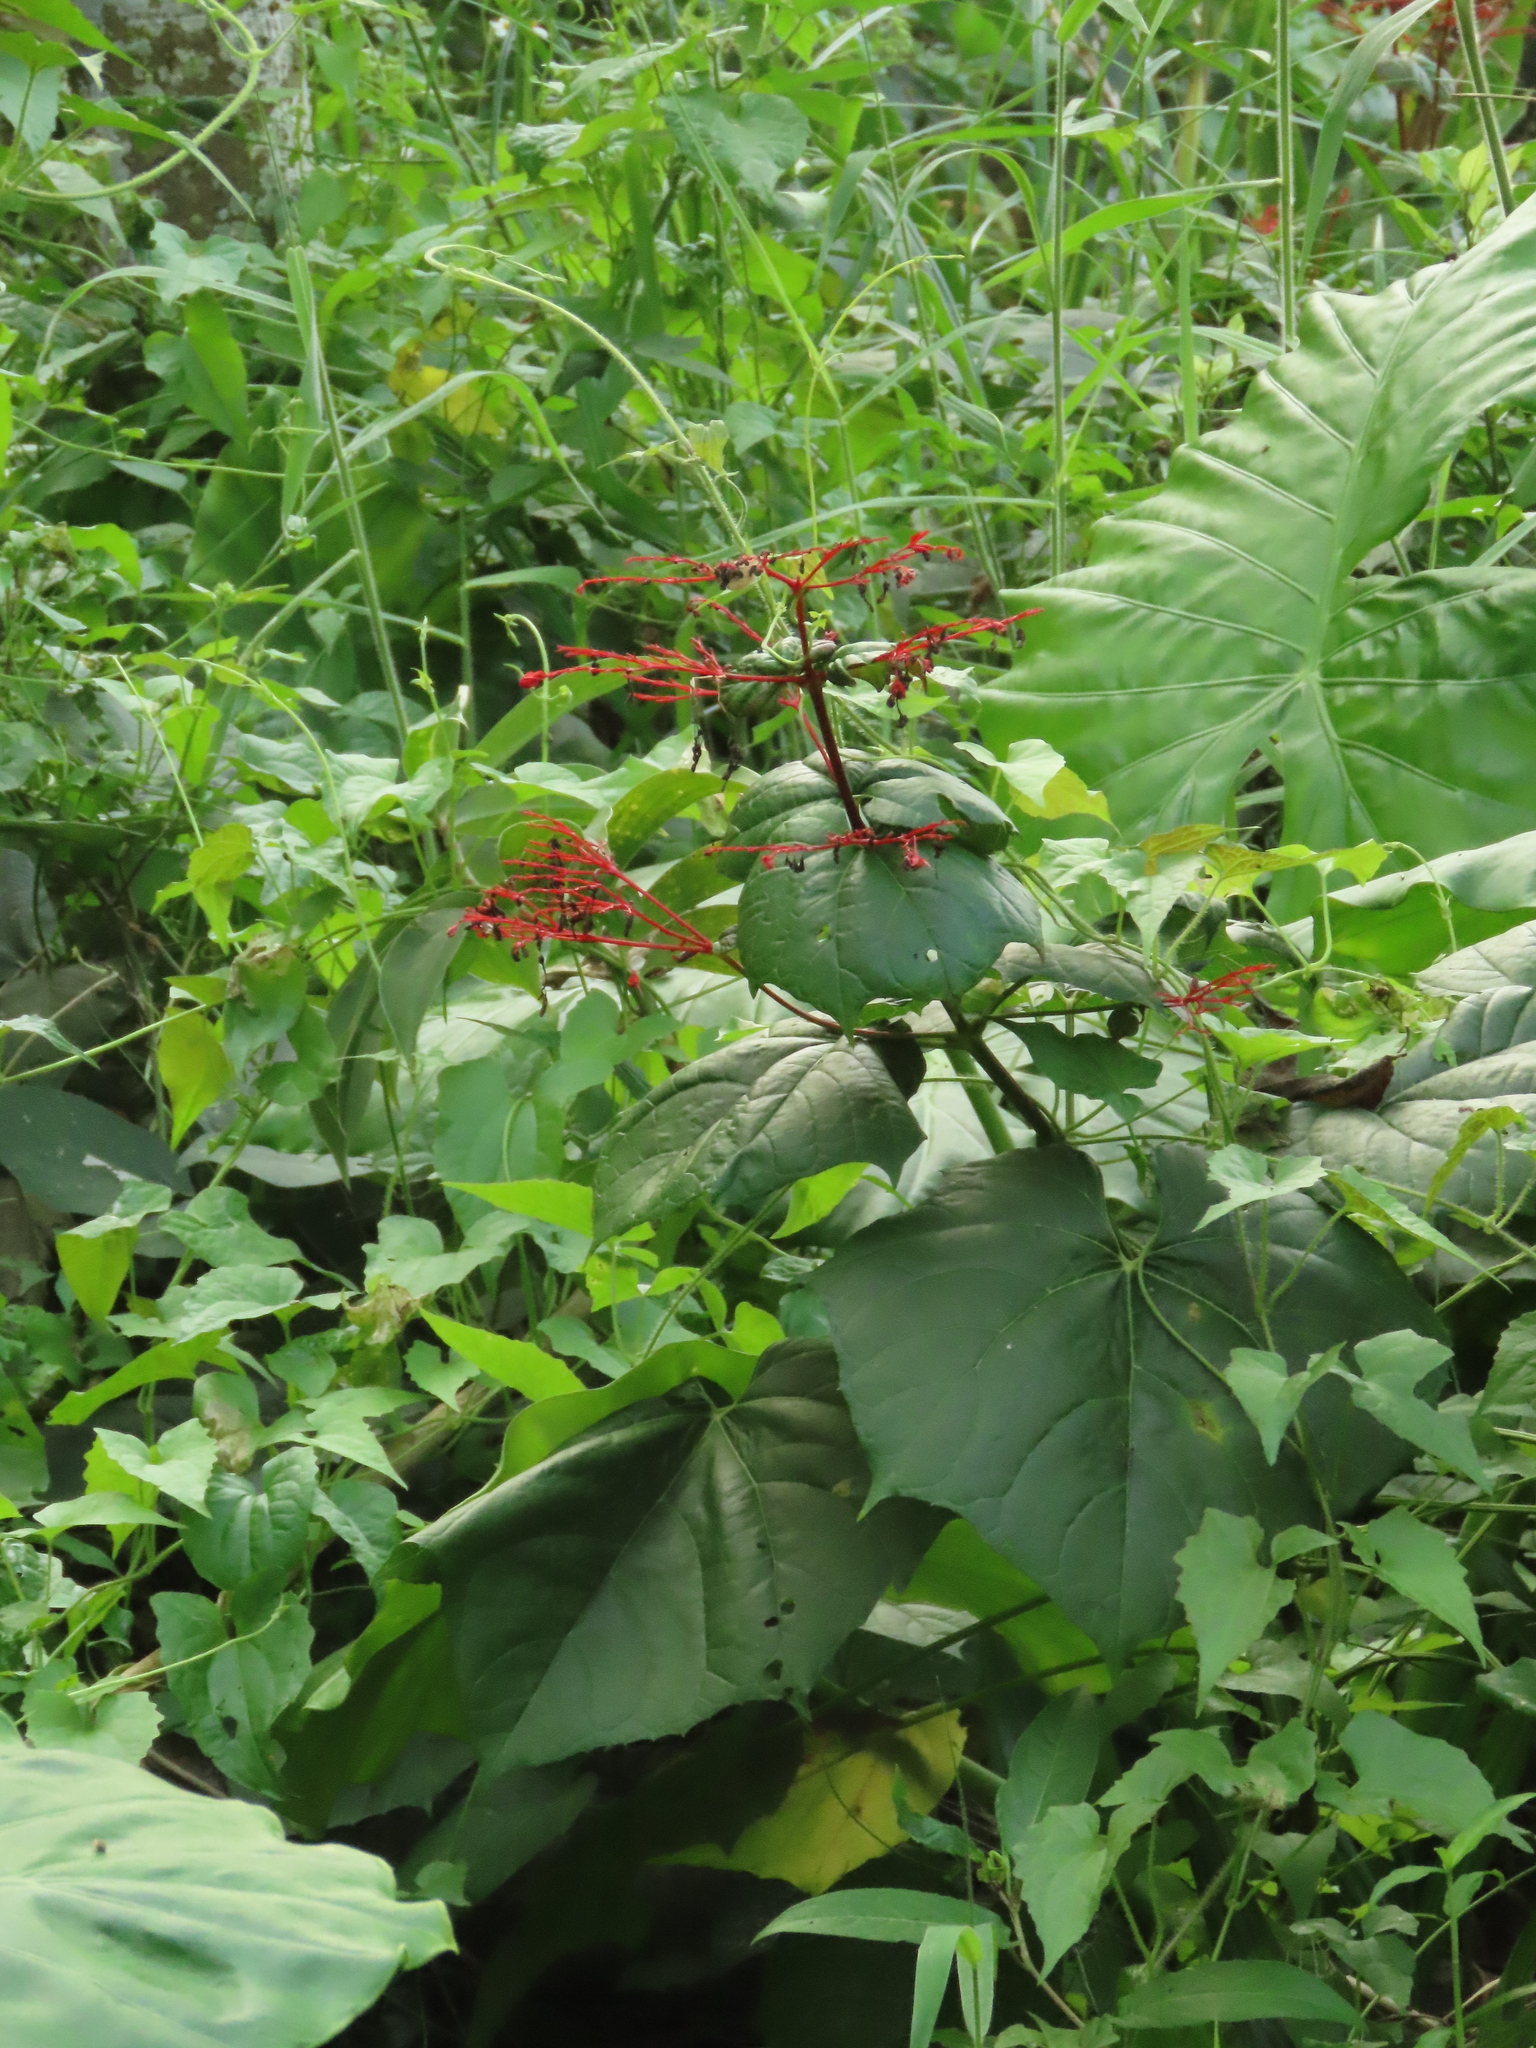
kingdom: Plantae
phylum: Tracheophyta
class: Magnoliopsida
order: Lamiales
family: Lamiaceae
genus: Clerodendrum
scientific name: Clerodendrum japonicum
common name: Japanese glorybower
